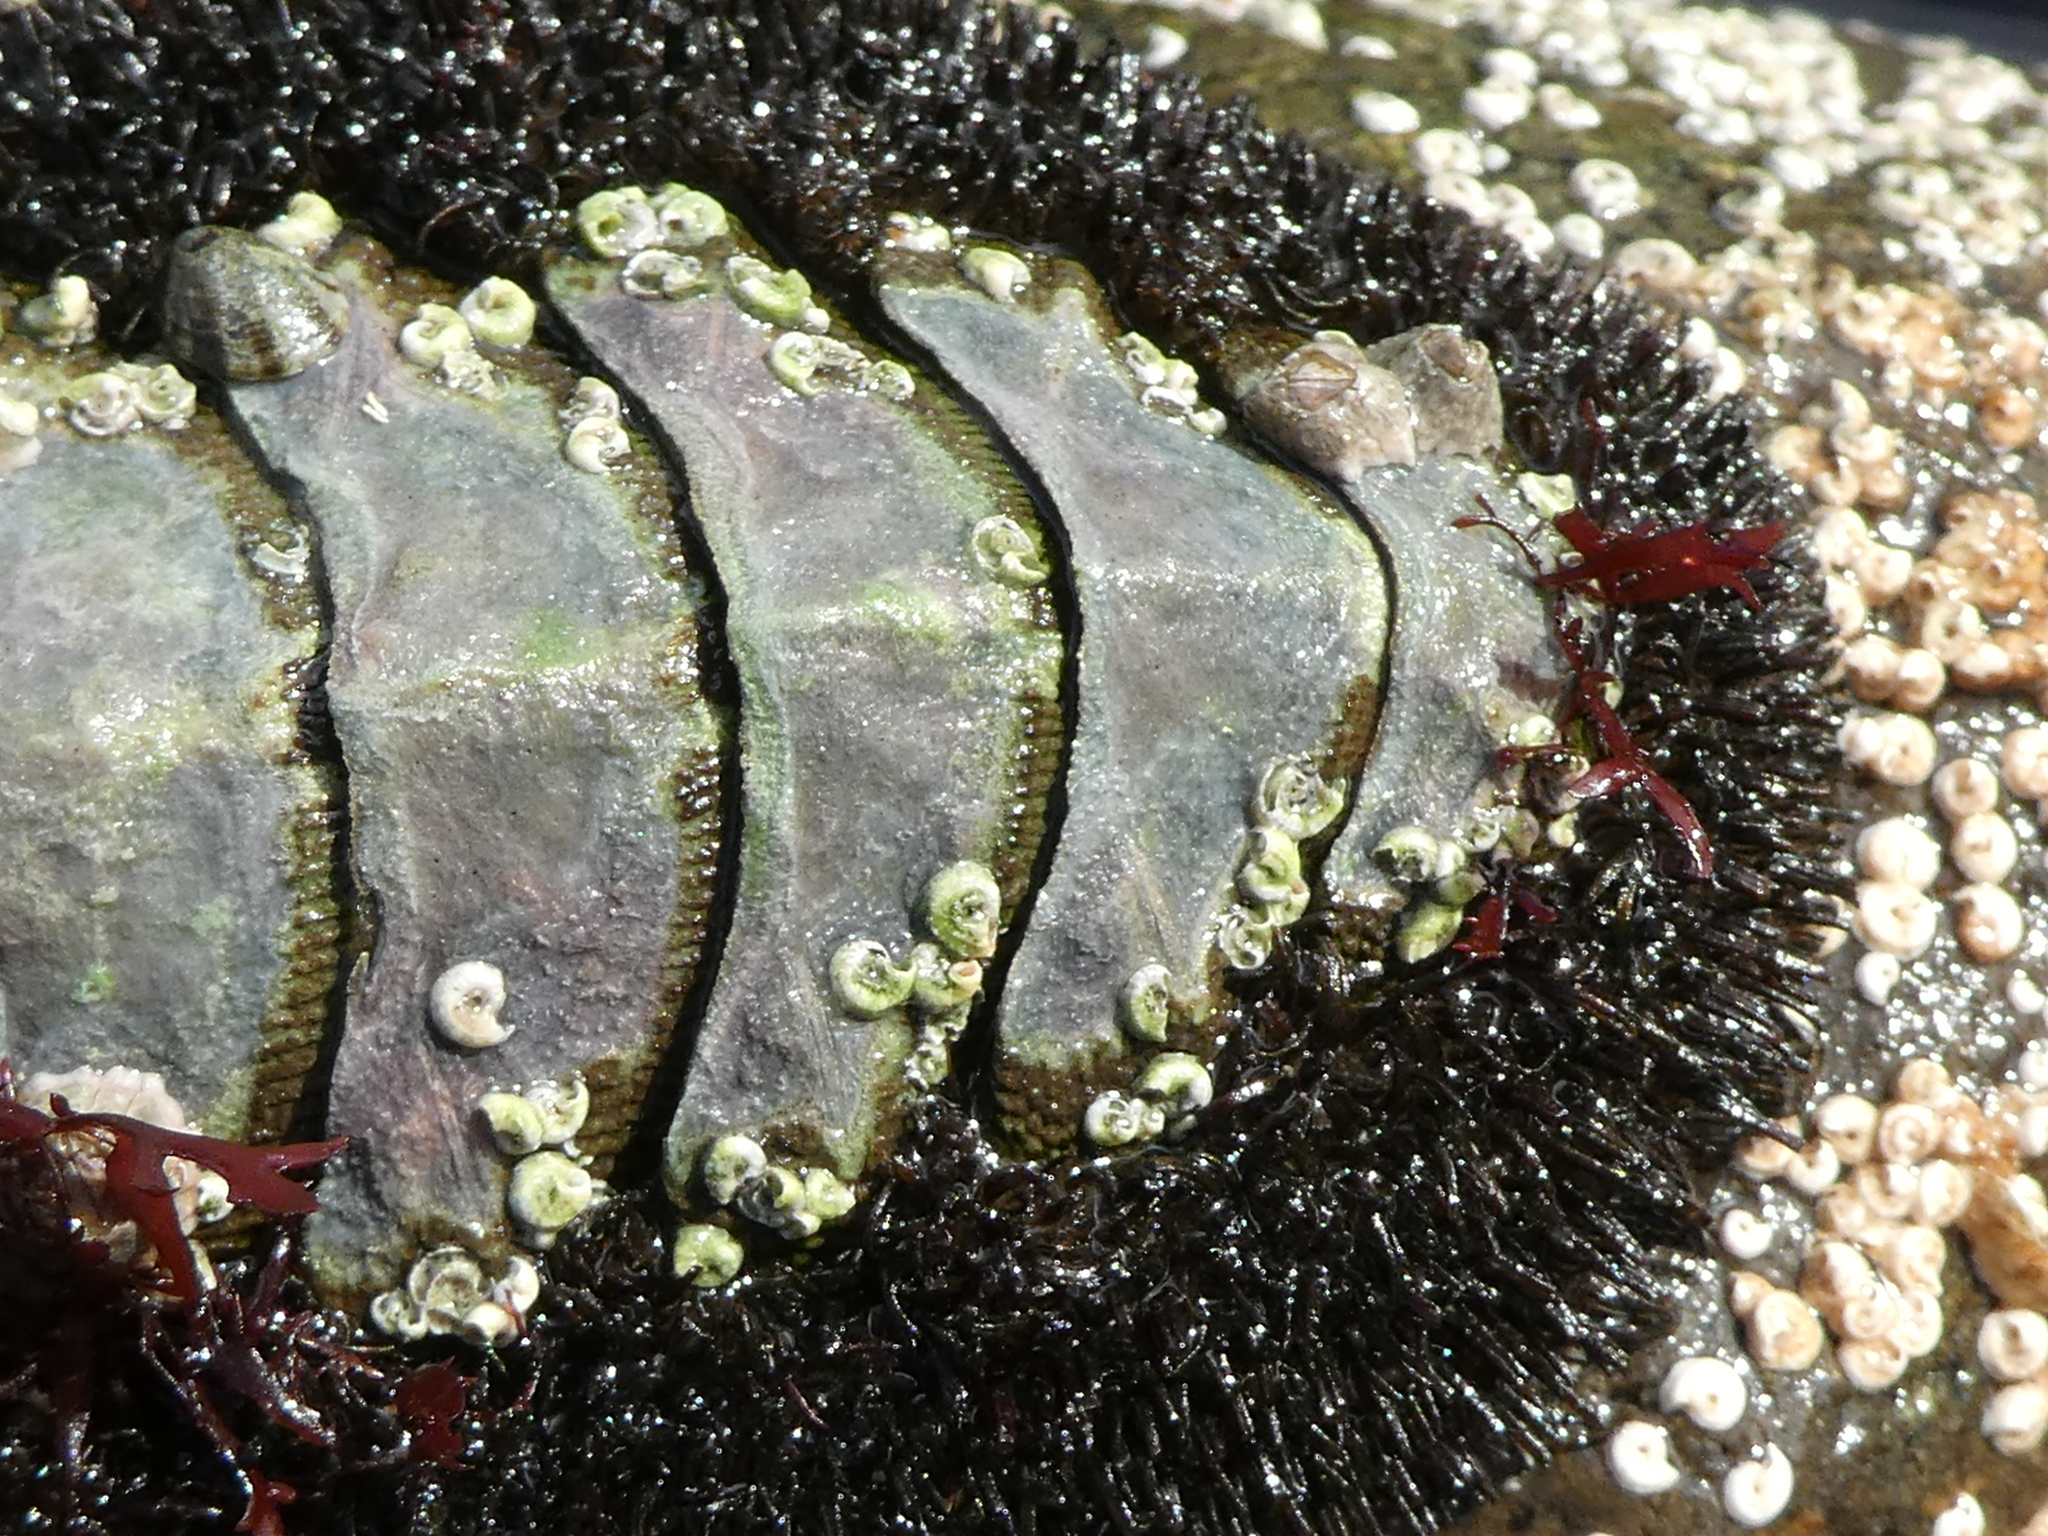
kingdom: Animalia
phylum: Mollusca
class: Polyplacophora
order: Chitonida
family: Mopaliidae
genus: Mopalia
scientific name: Mopalia muscosa
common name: Mossy chiton
